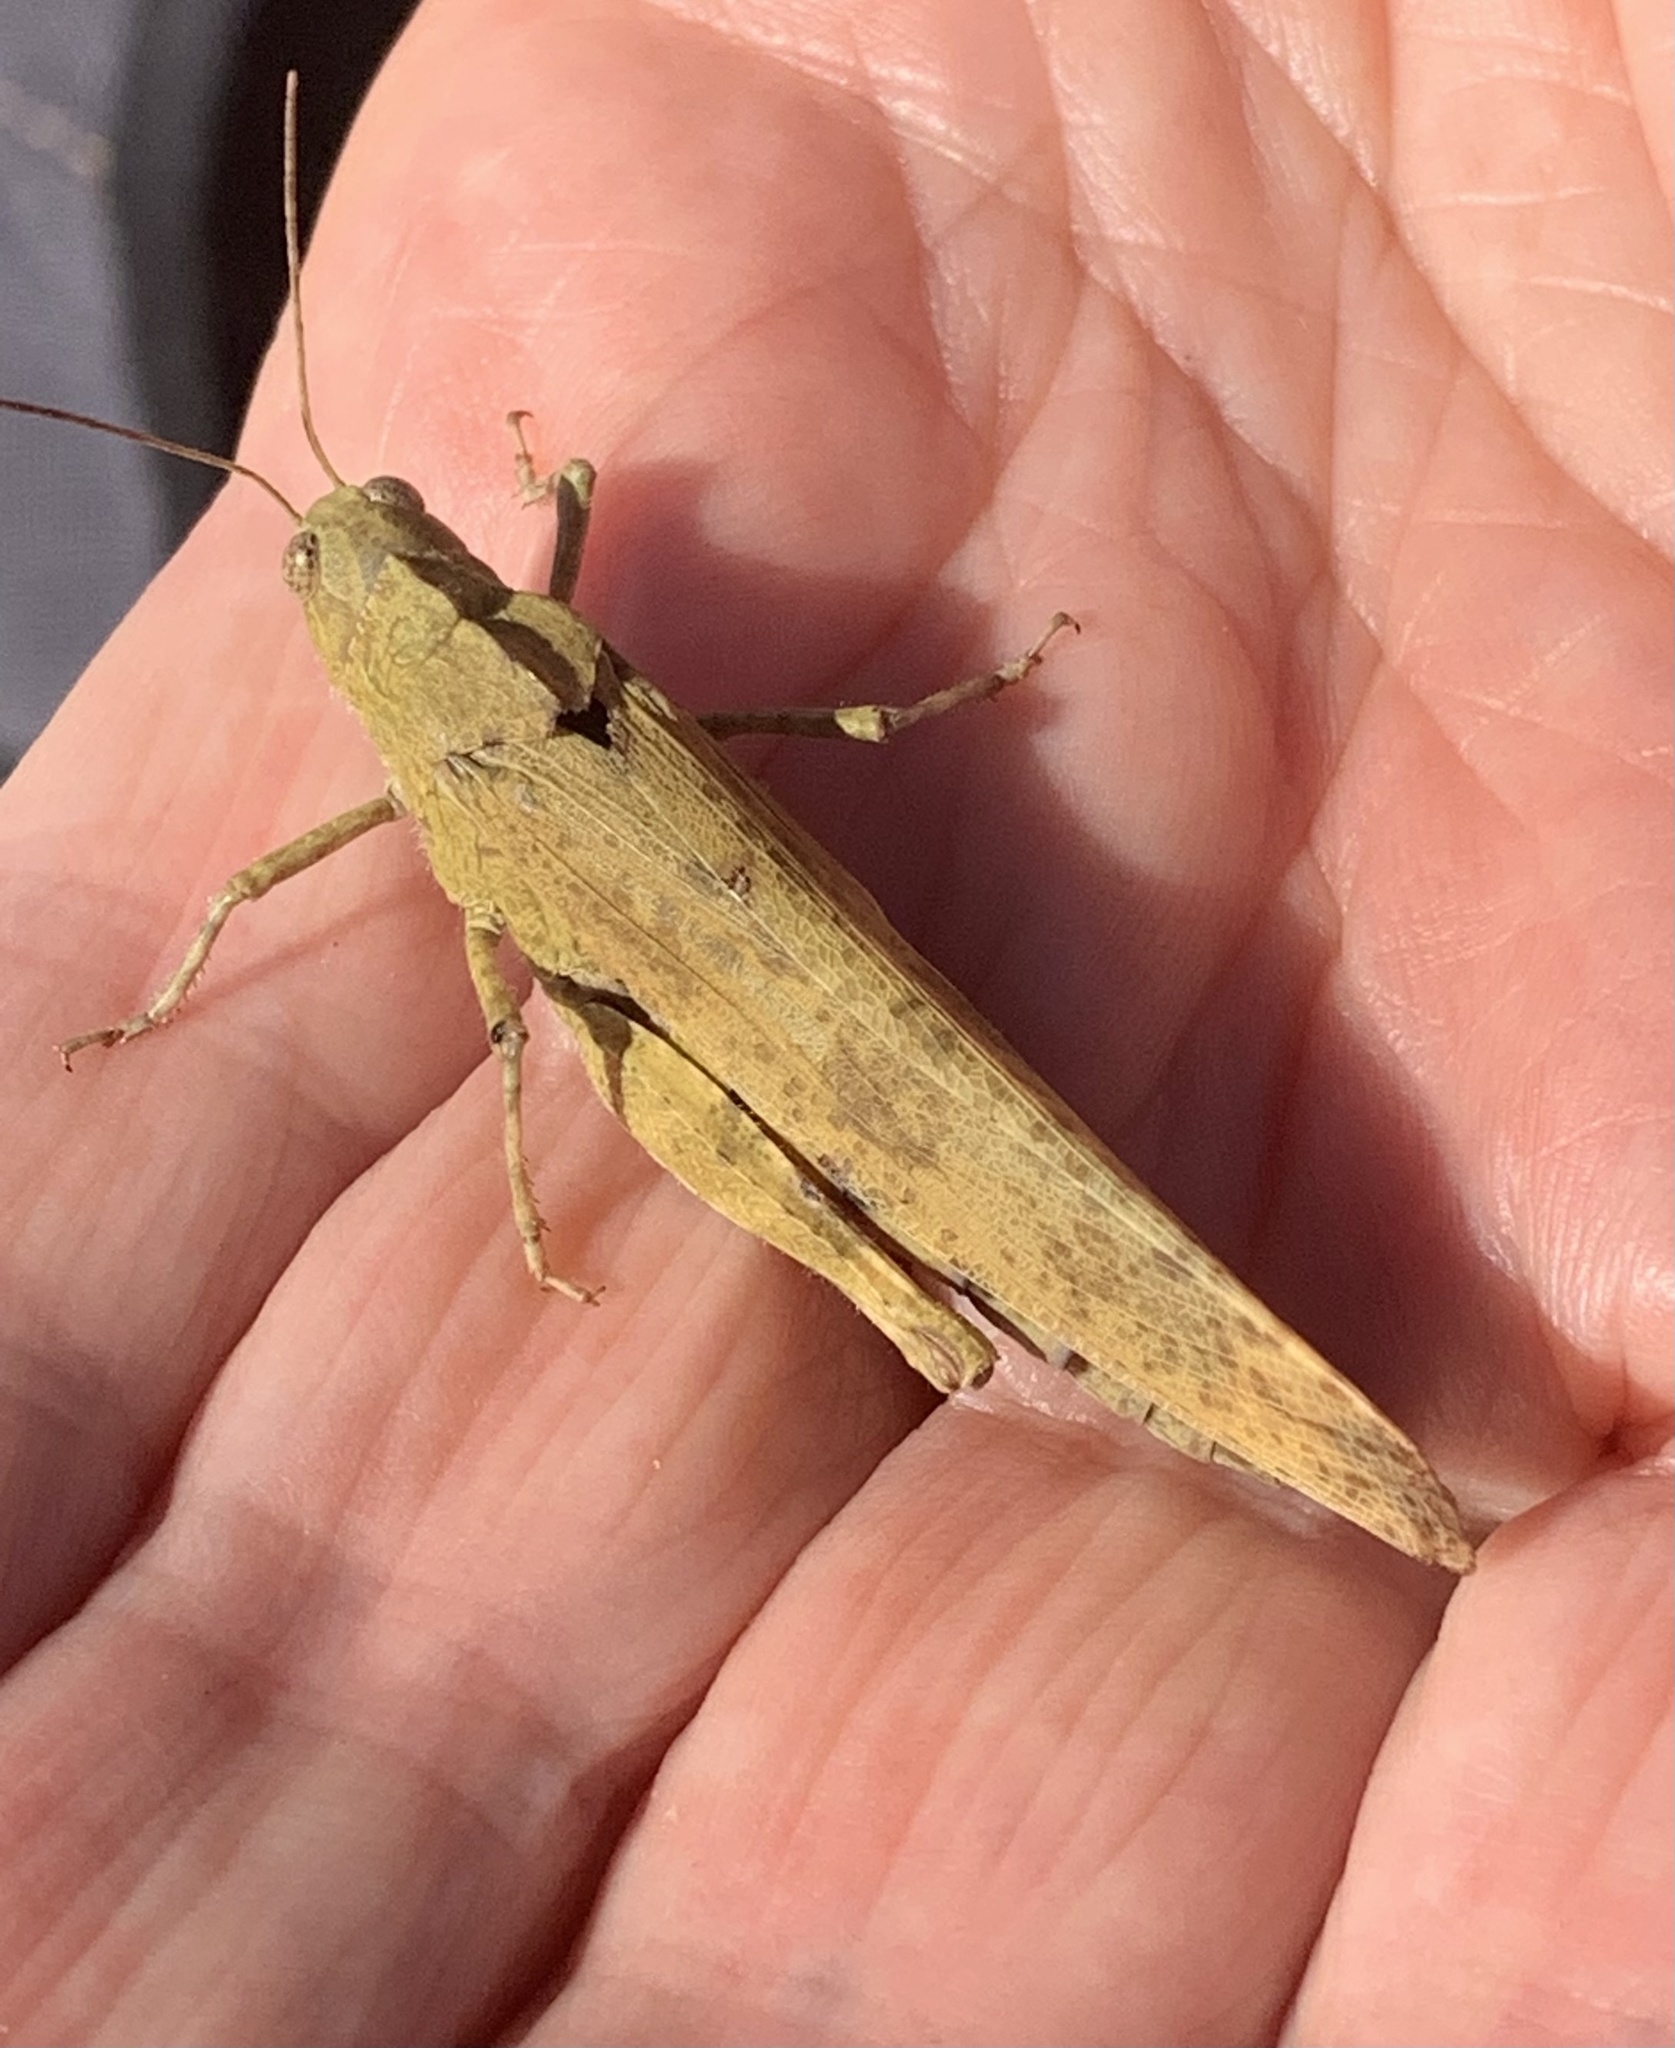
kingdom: Animalia
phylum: Arthropoda
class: Insecta
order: Orthoptera
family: Acrididae
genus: Dissosteira
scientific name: Dissosteira carolina
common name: Carolina grasshopper
